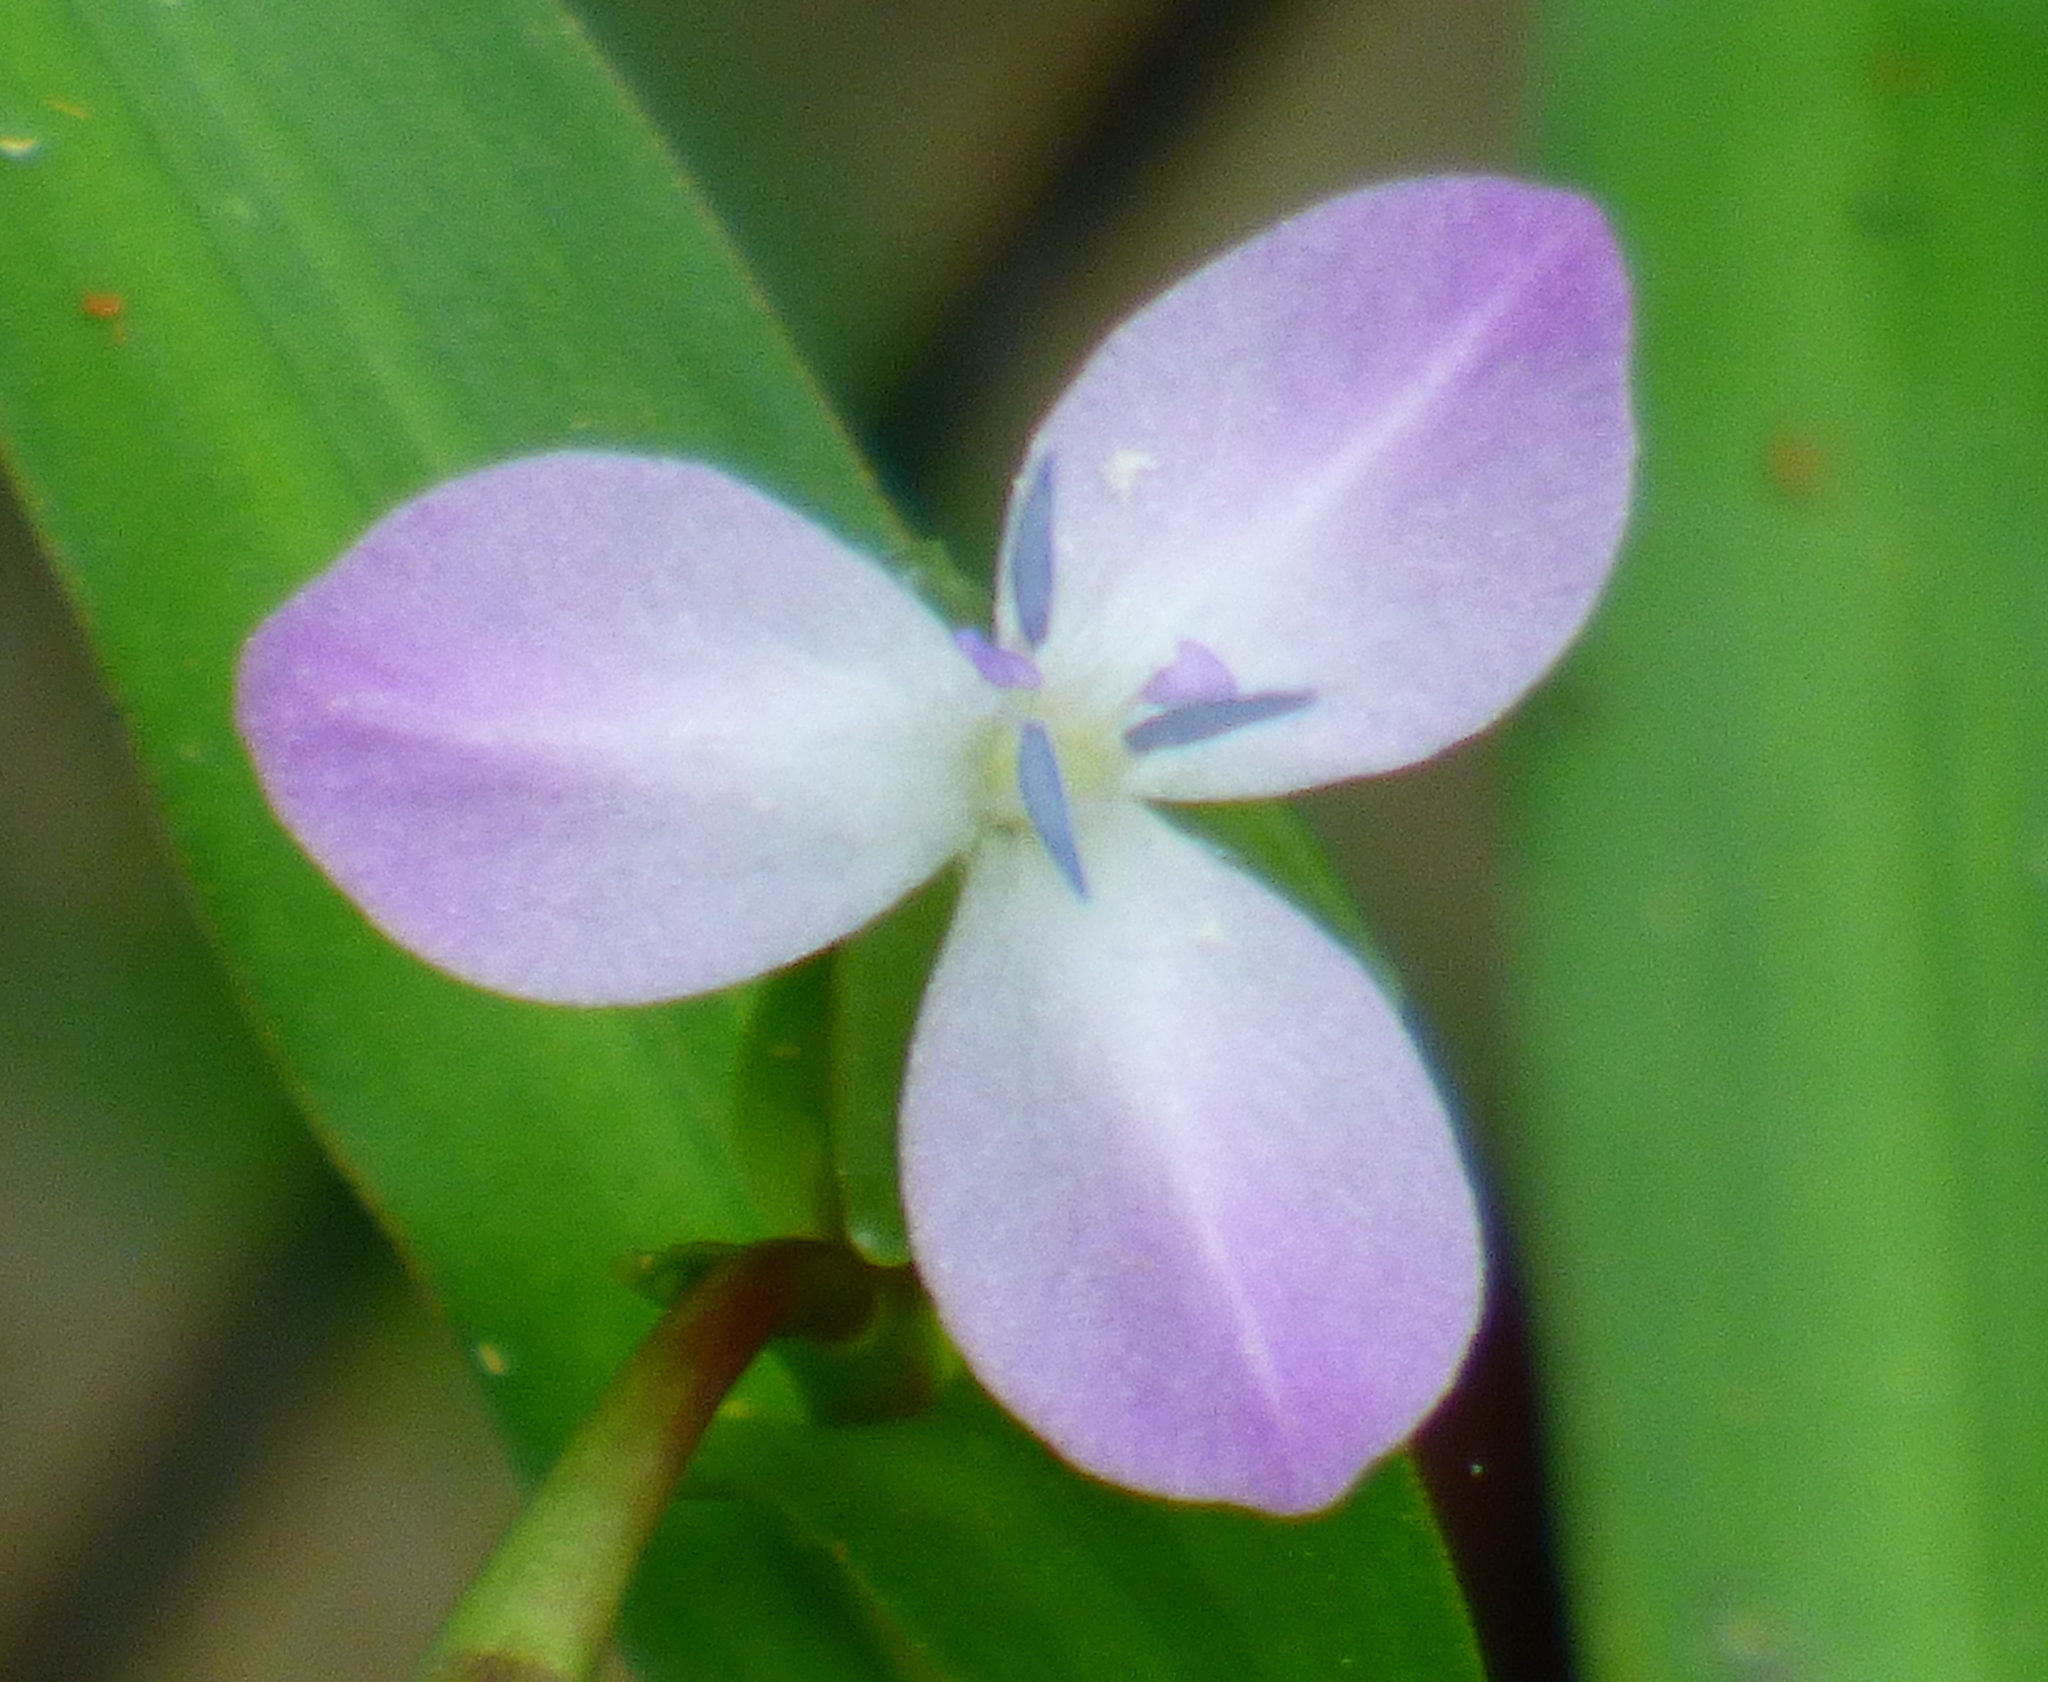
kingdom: Plantae
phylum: Tracheophyta
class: Liliopsida
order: Commelinales
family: Commelinaceae
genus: Murdannia
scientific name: Murdannia keisak
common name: Wartremoving herb
